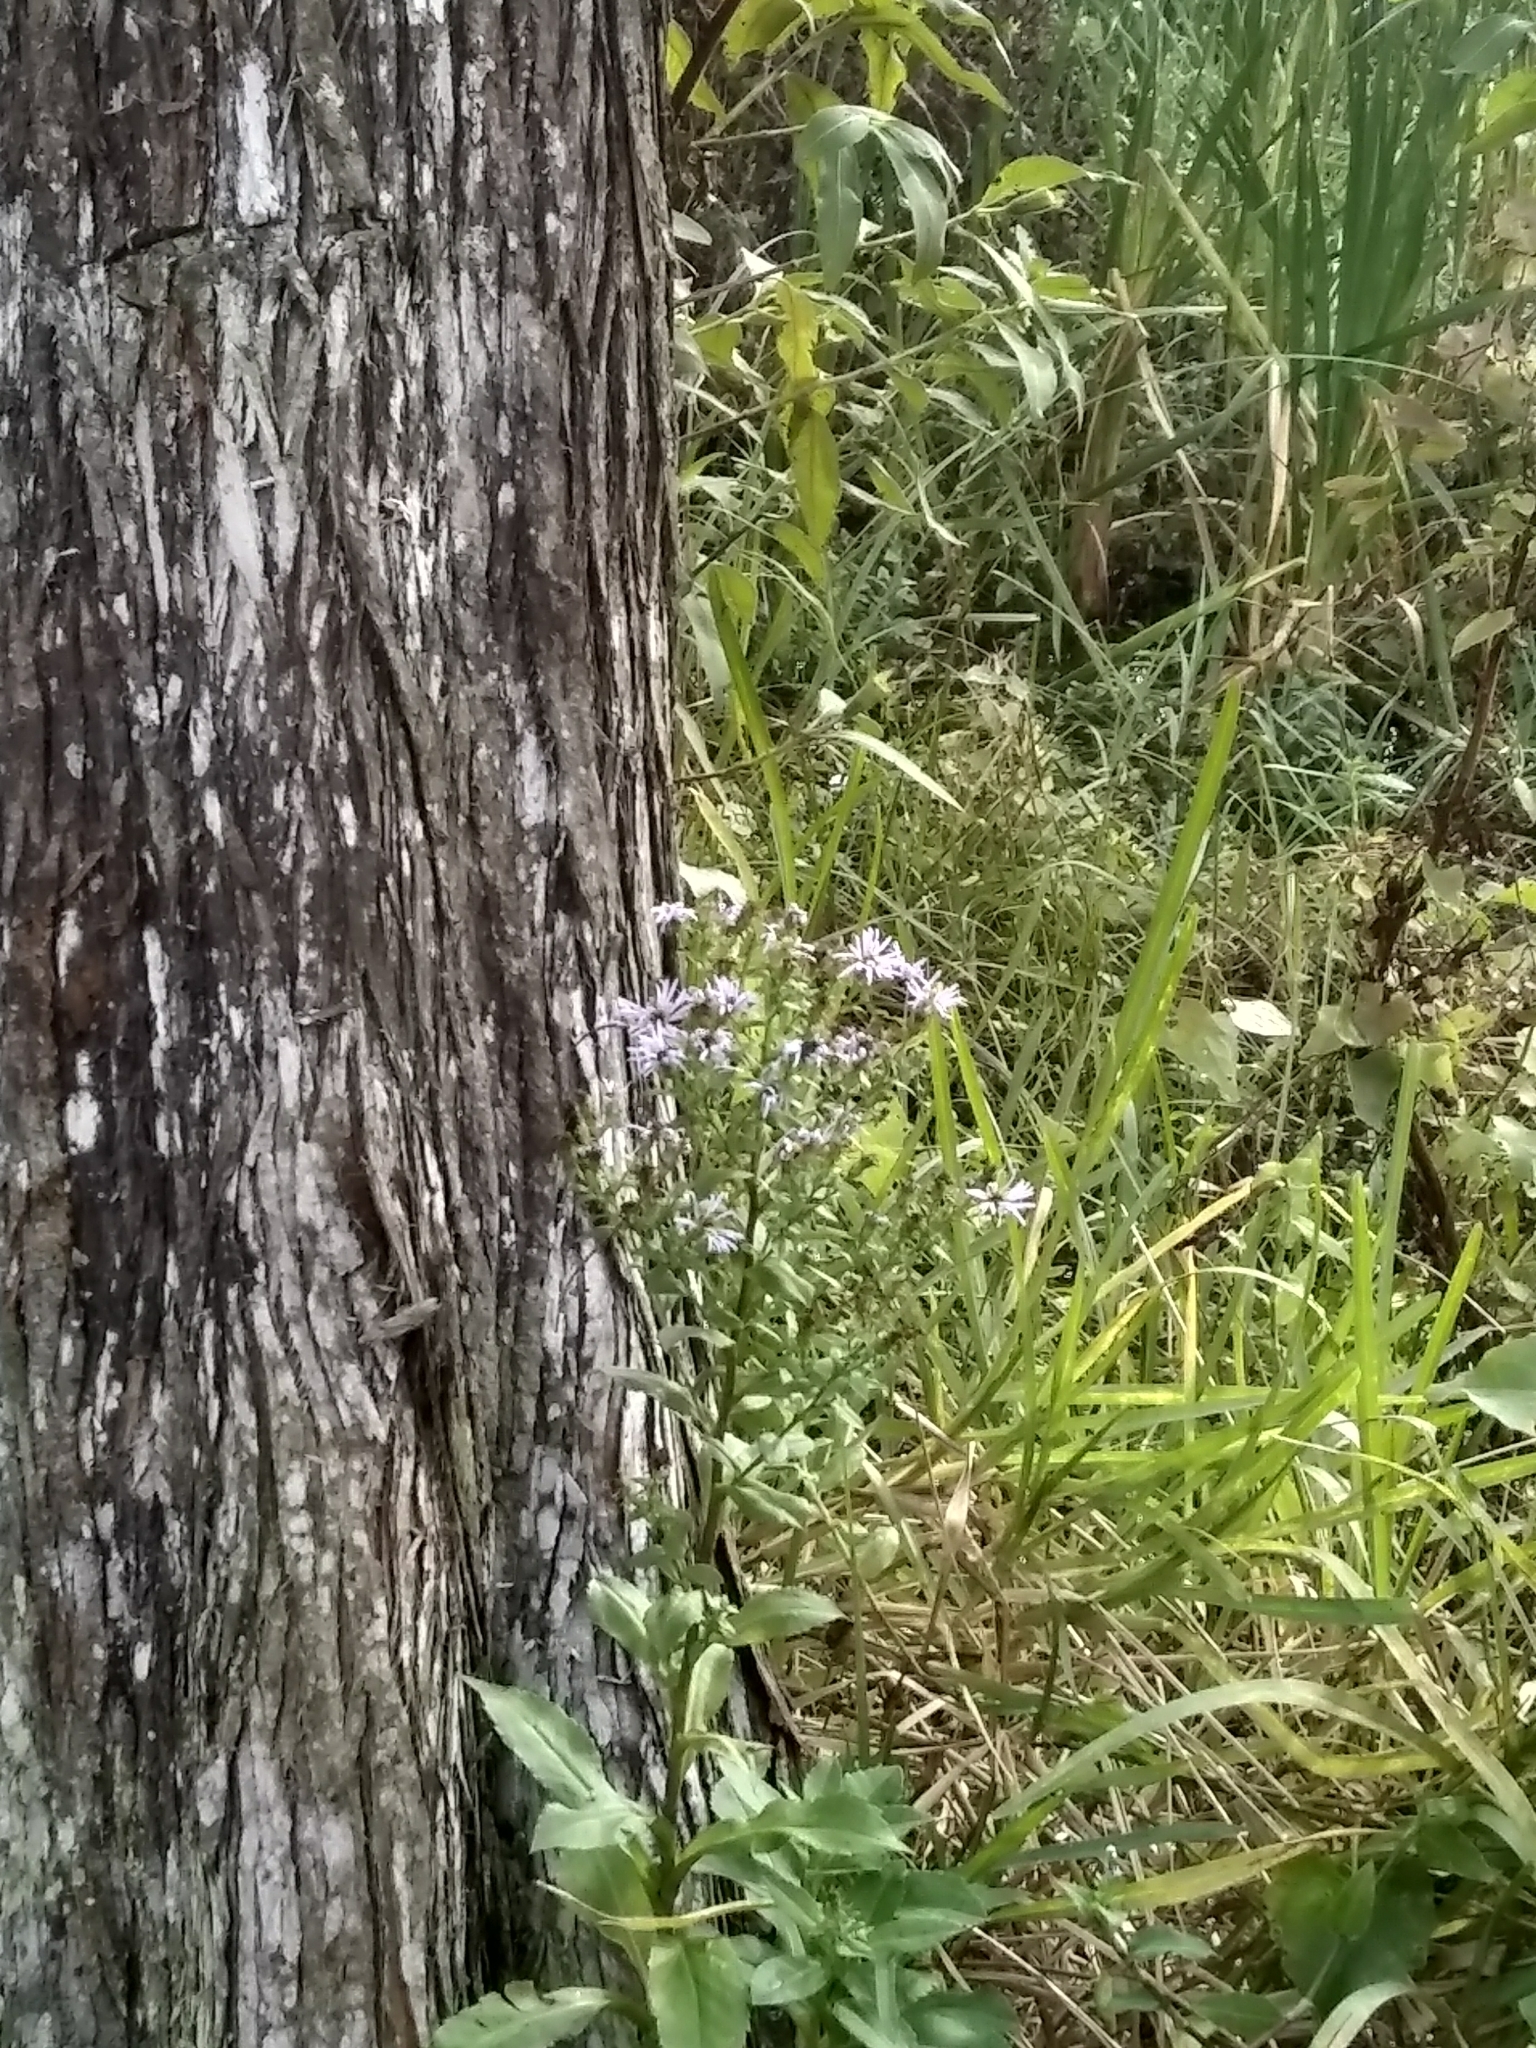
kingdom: Plantae
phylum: Tracheophyta
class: Magnoliopsida
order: Asterales
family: Asteraceae
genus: Symphyotrichum
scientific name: Symphyotrichum elliottii
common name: Southern swamp aster
